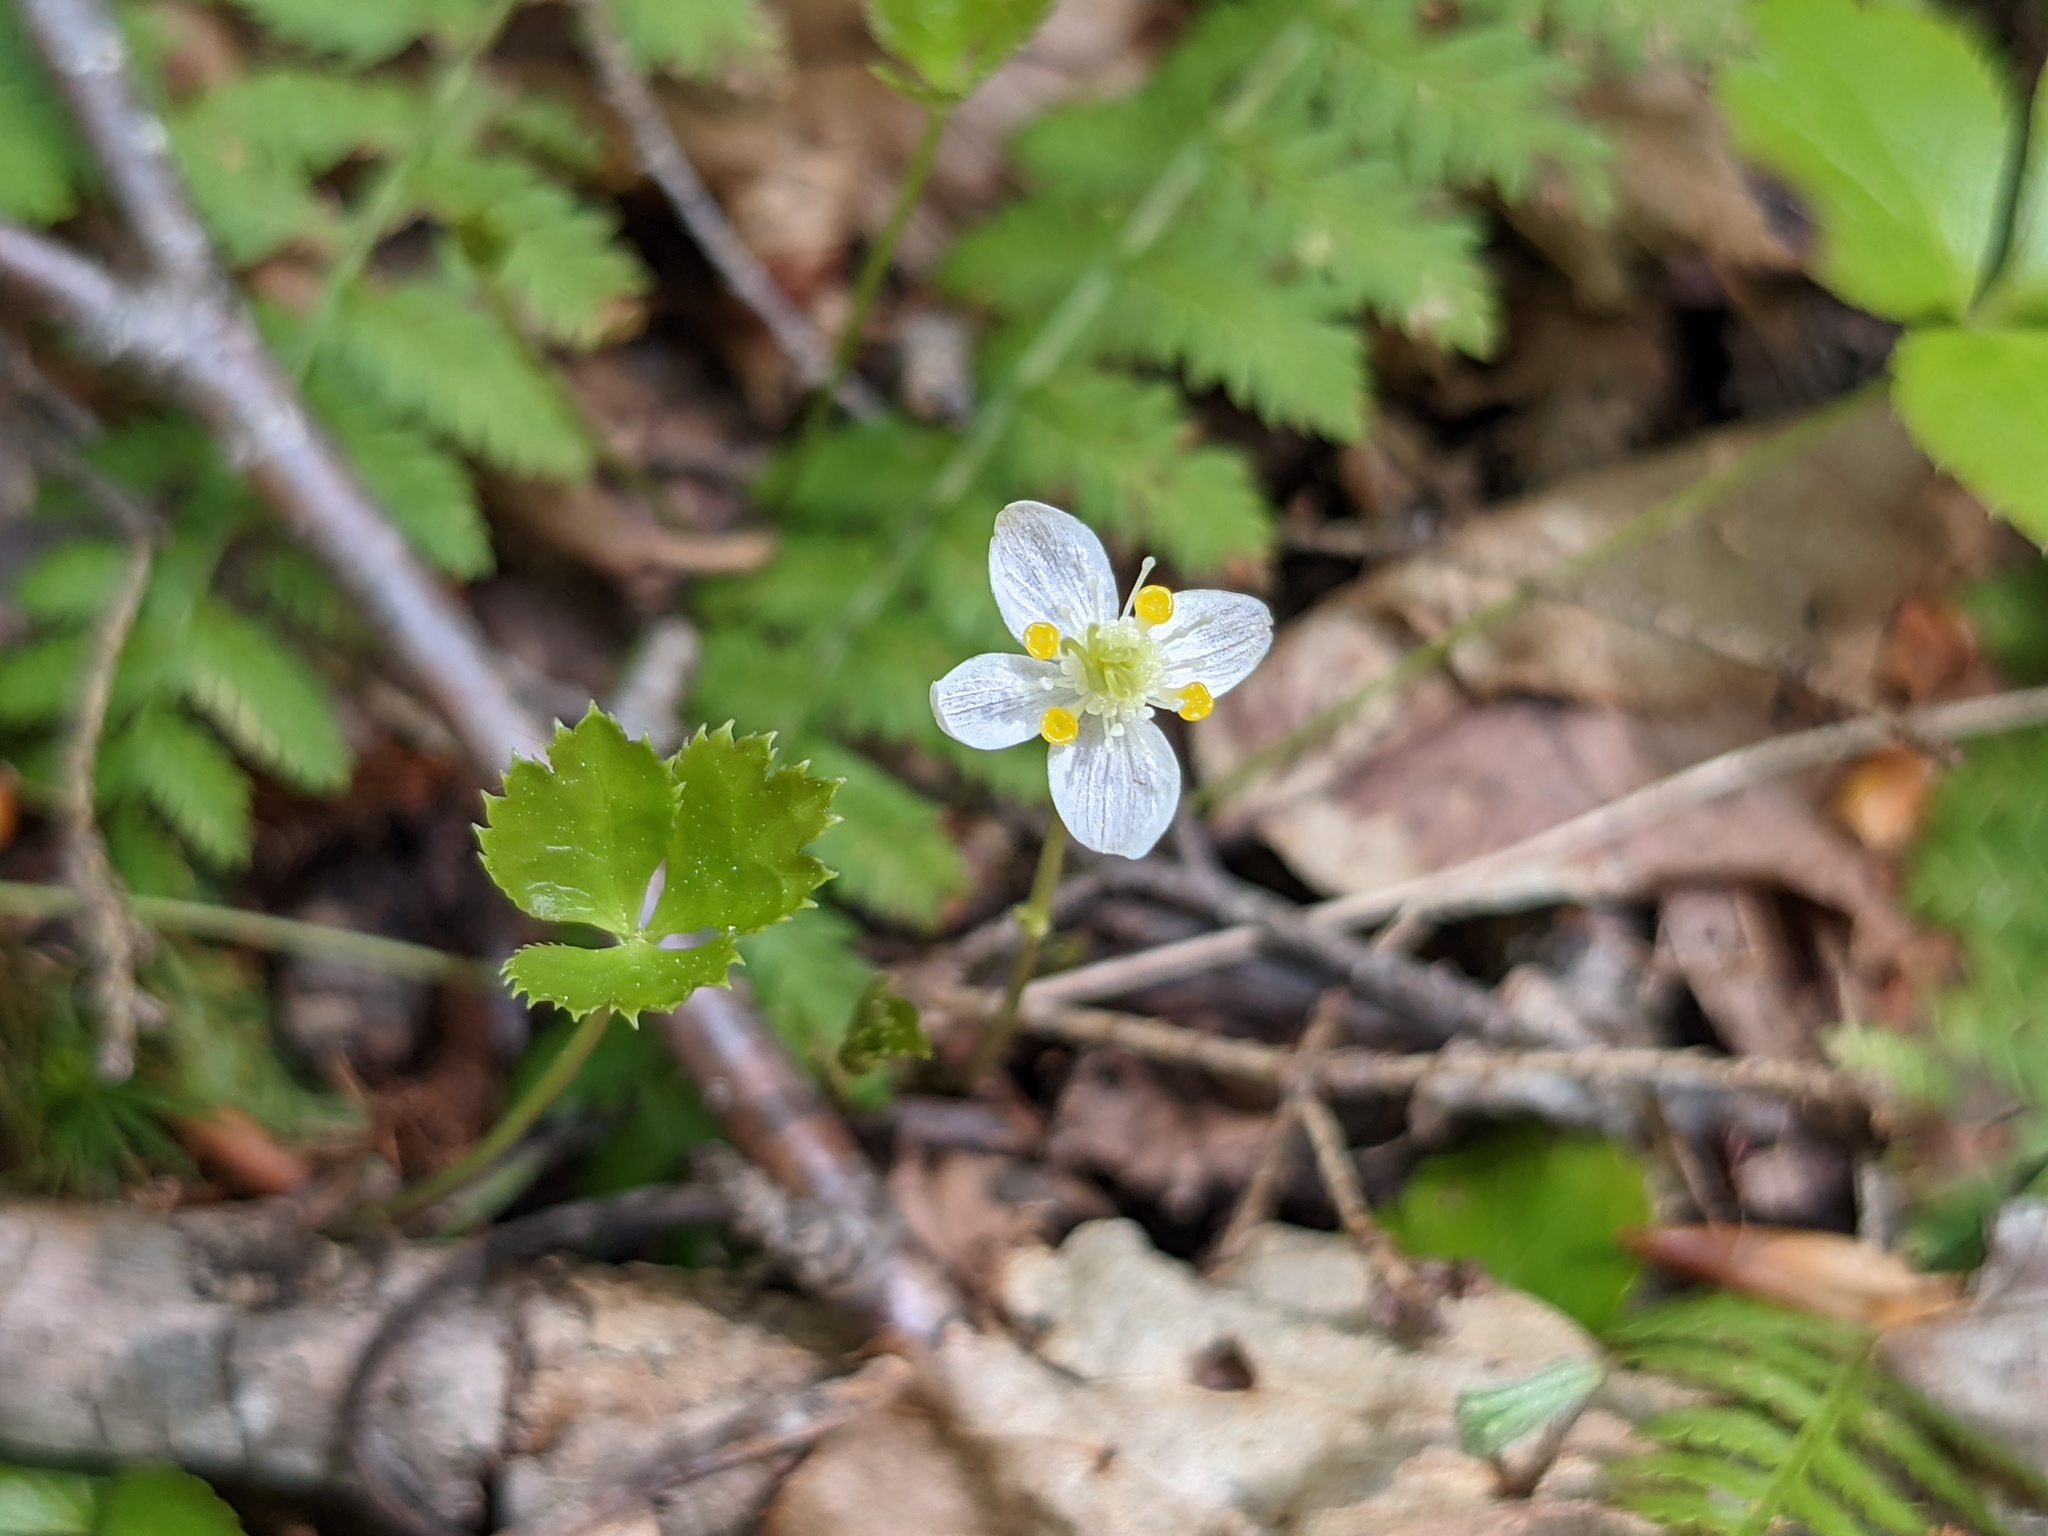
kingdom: Plantae
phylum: Tracheophyta
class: Magnoliopsida
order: Ranunculales
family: Ranunculaceae
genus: Coptis
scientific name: Coptis trifolia
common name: Canker-root
